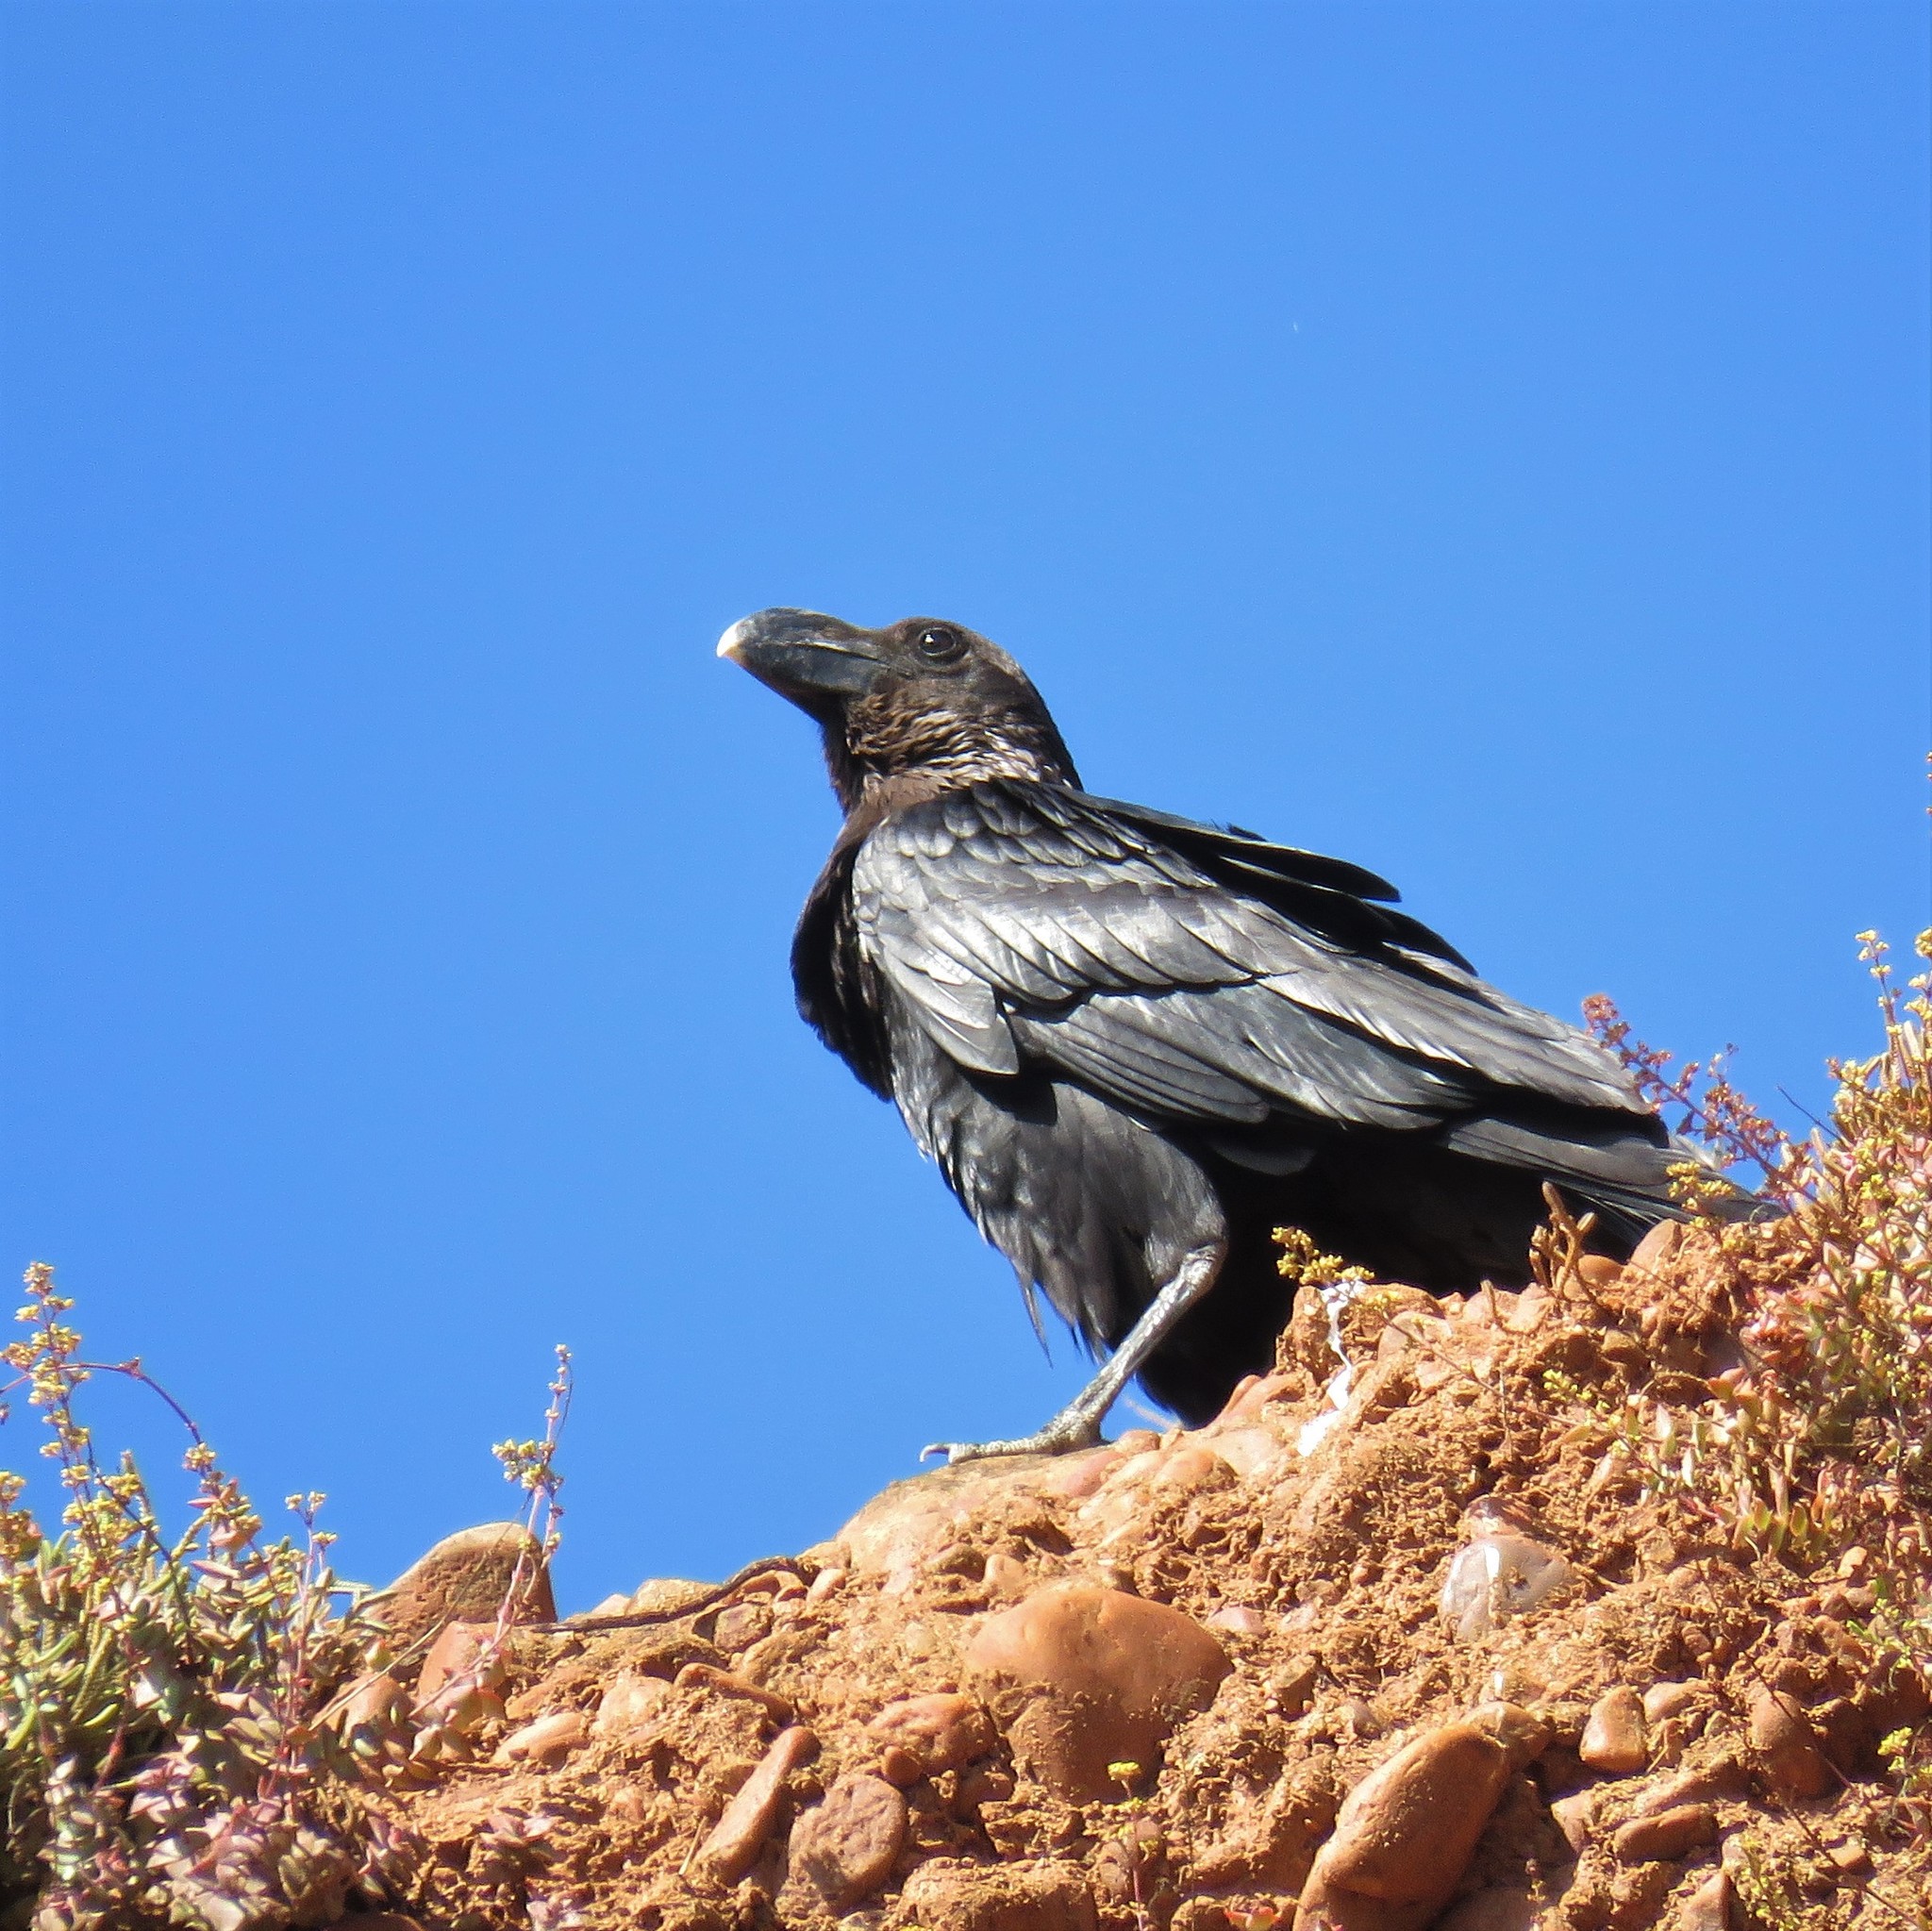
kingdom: Animalia
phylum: Chordata
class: Aves
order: Passeriformes
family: Corvidae
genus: Corvus
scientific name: Corvus albicollis
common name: White-necked raven
